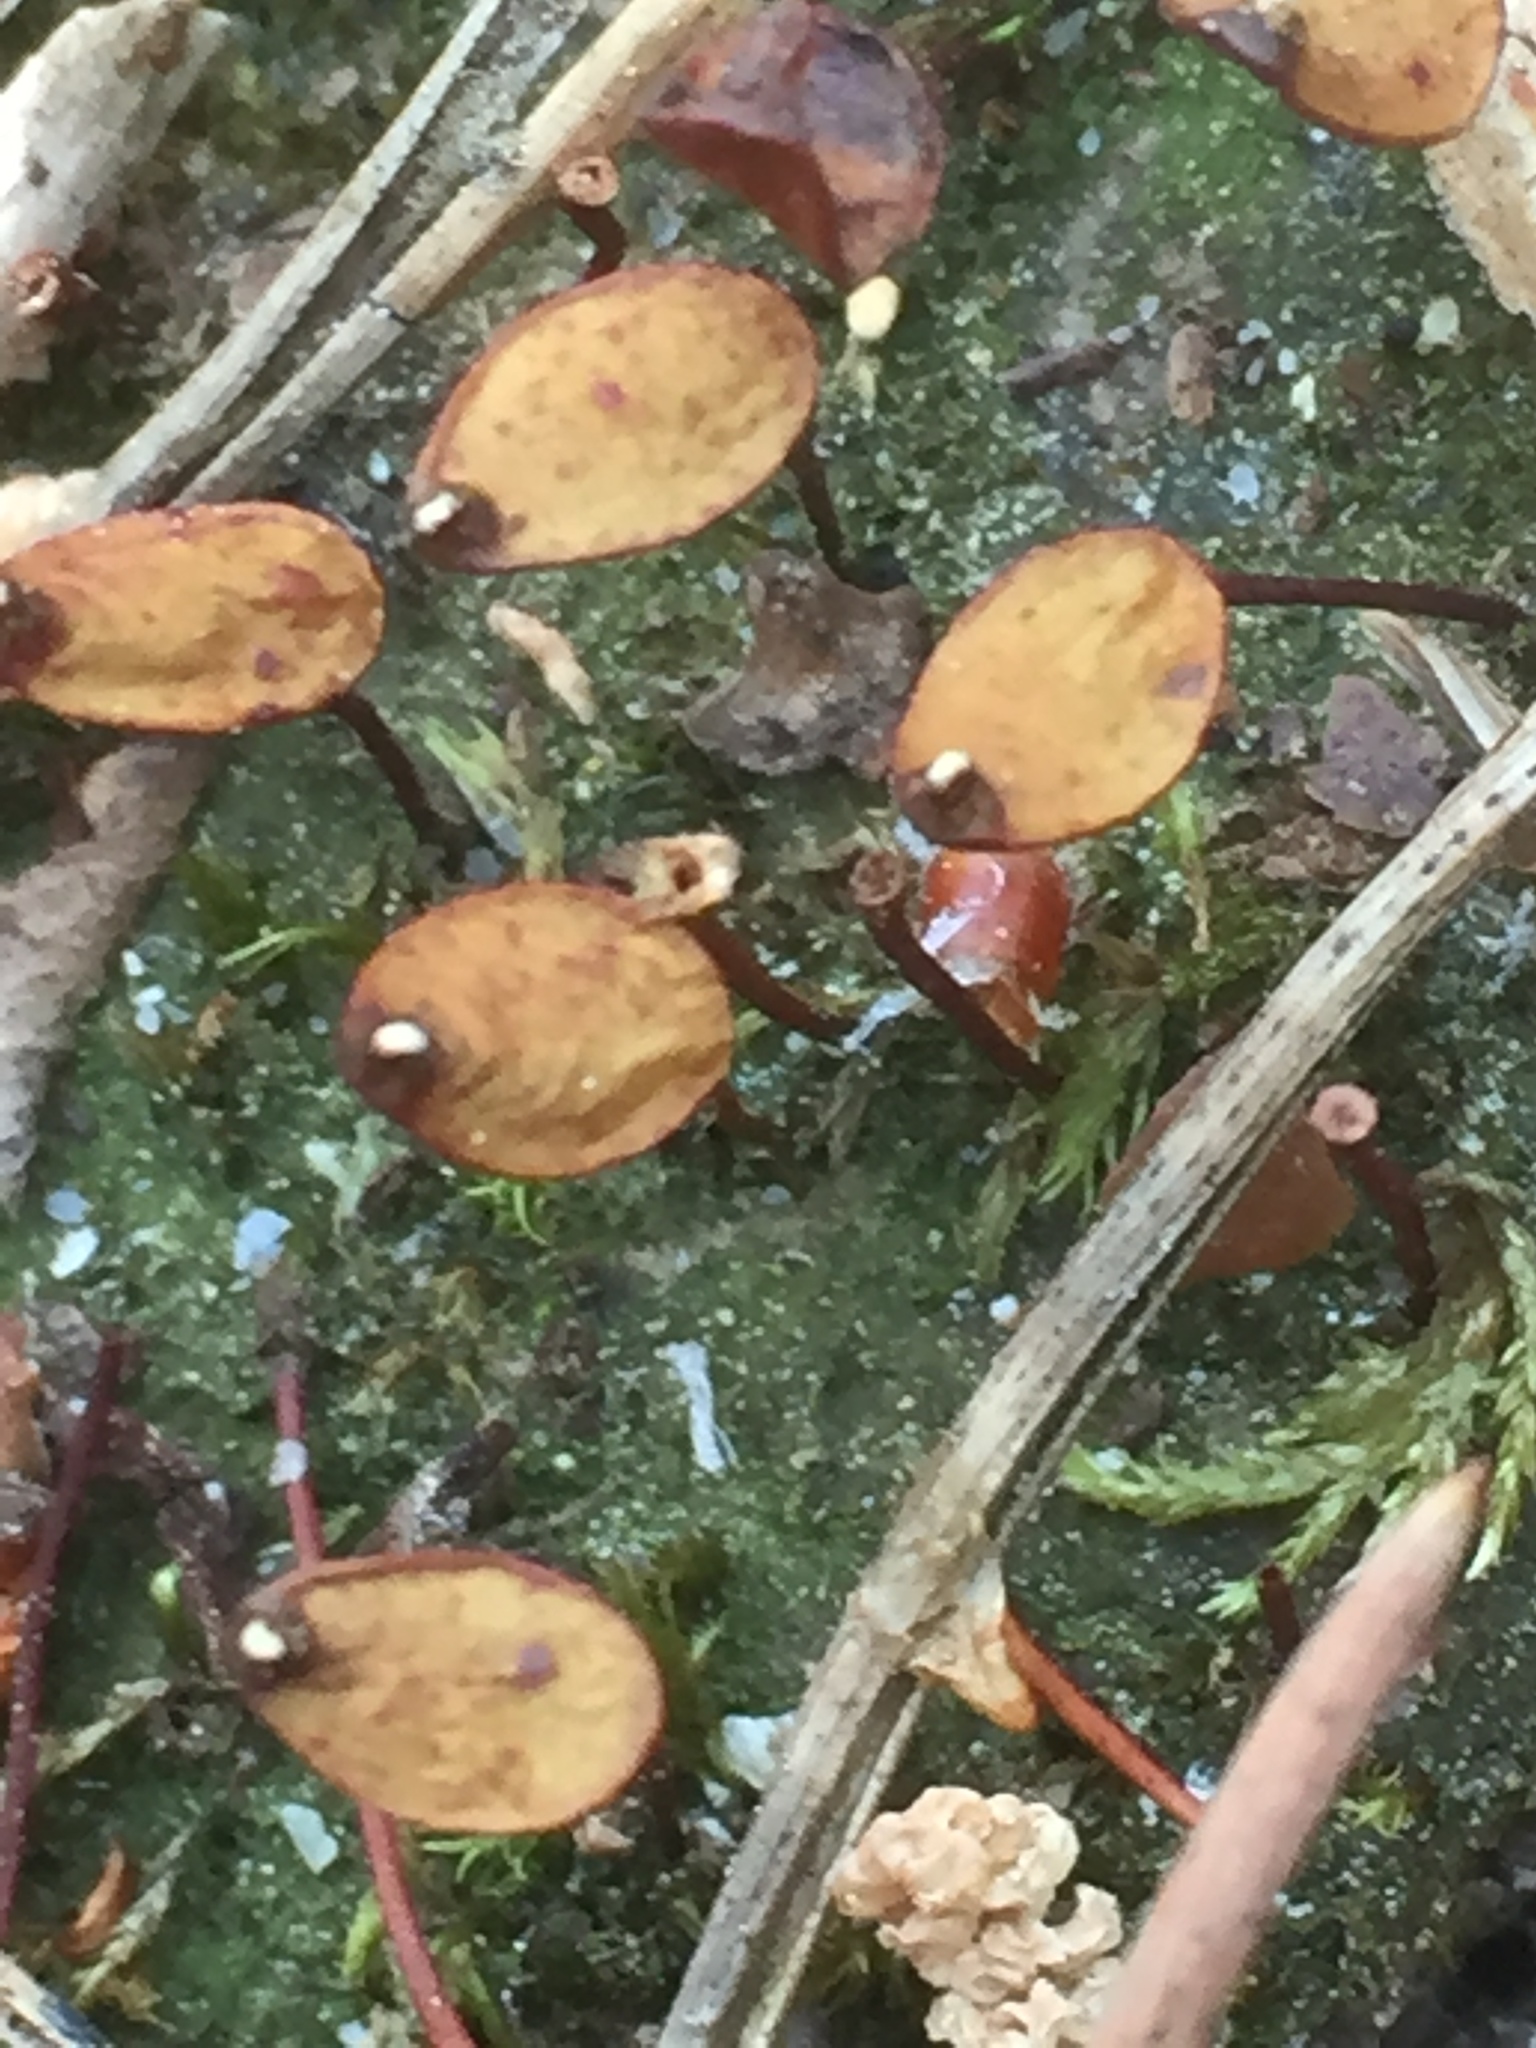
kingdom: Plantae
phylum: Bryophyta
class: Bryopsida
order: Buxbaumiales
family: Buxbaumiaceae
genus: Buxbaumia
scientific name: Buxbaumia aphylla
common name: Brown shield-moss
